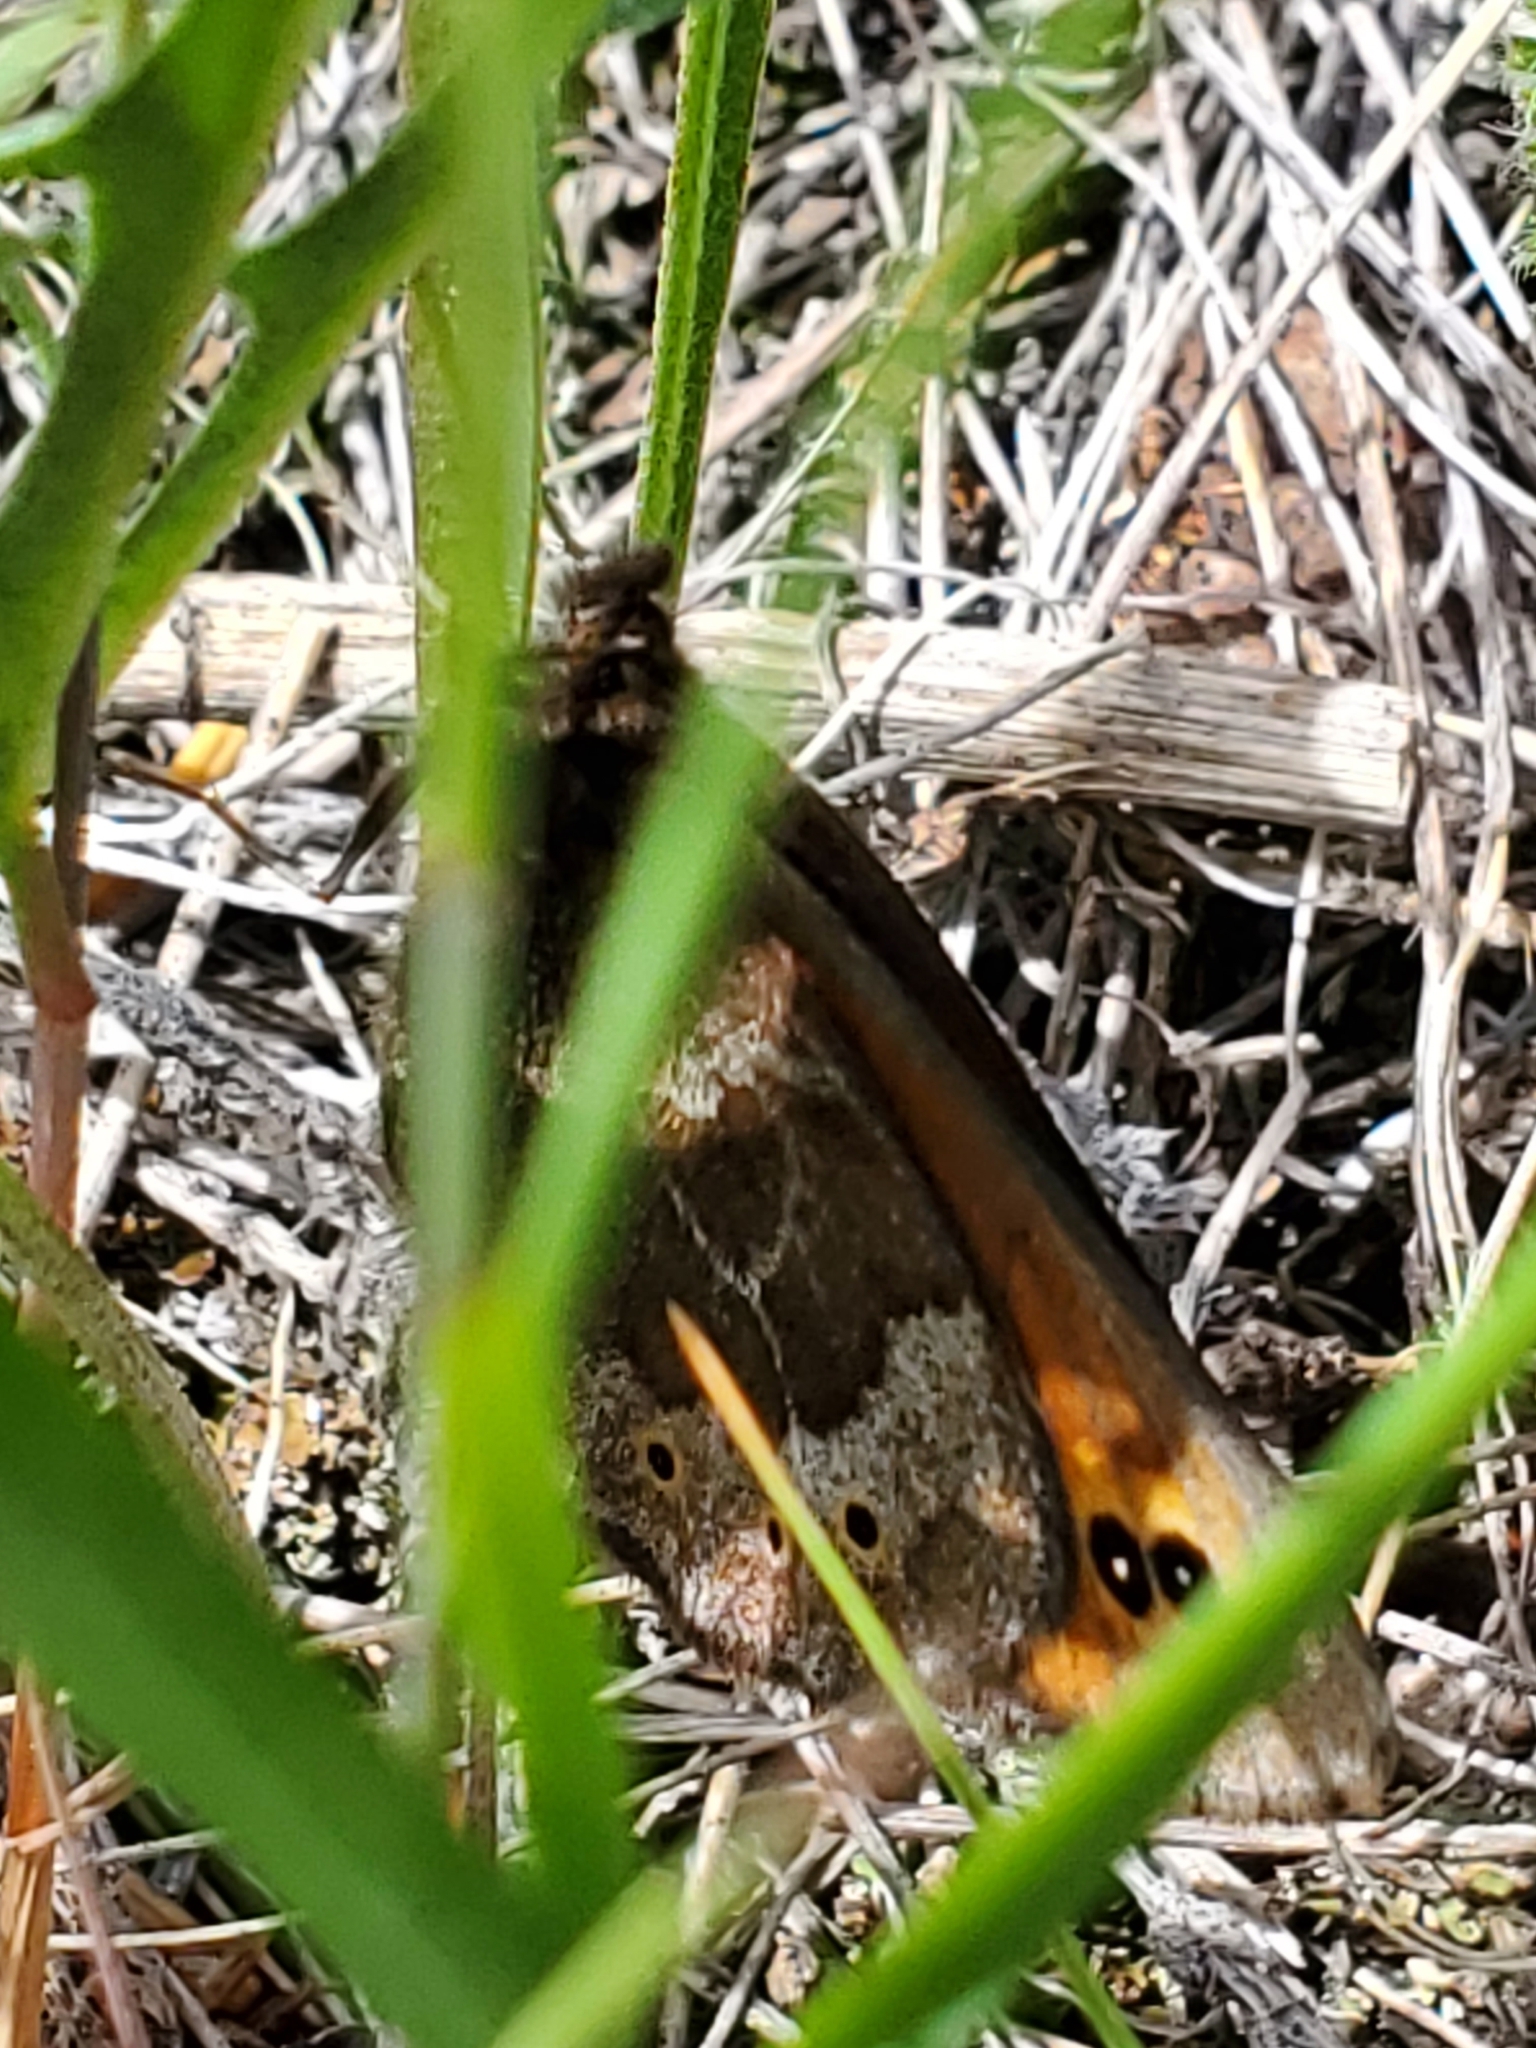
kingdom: Animalia
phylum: Arthropoda
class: Insecta
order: Lepidoptera
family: Nymphalidae
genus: Erebia
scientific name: Erebia epipsodea
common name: Common alpine
